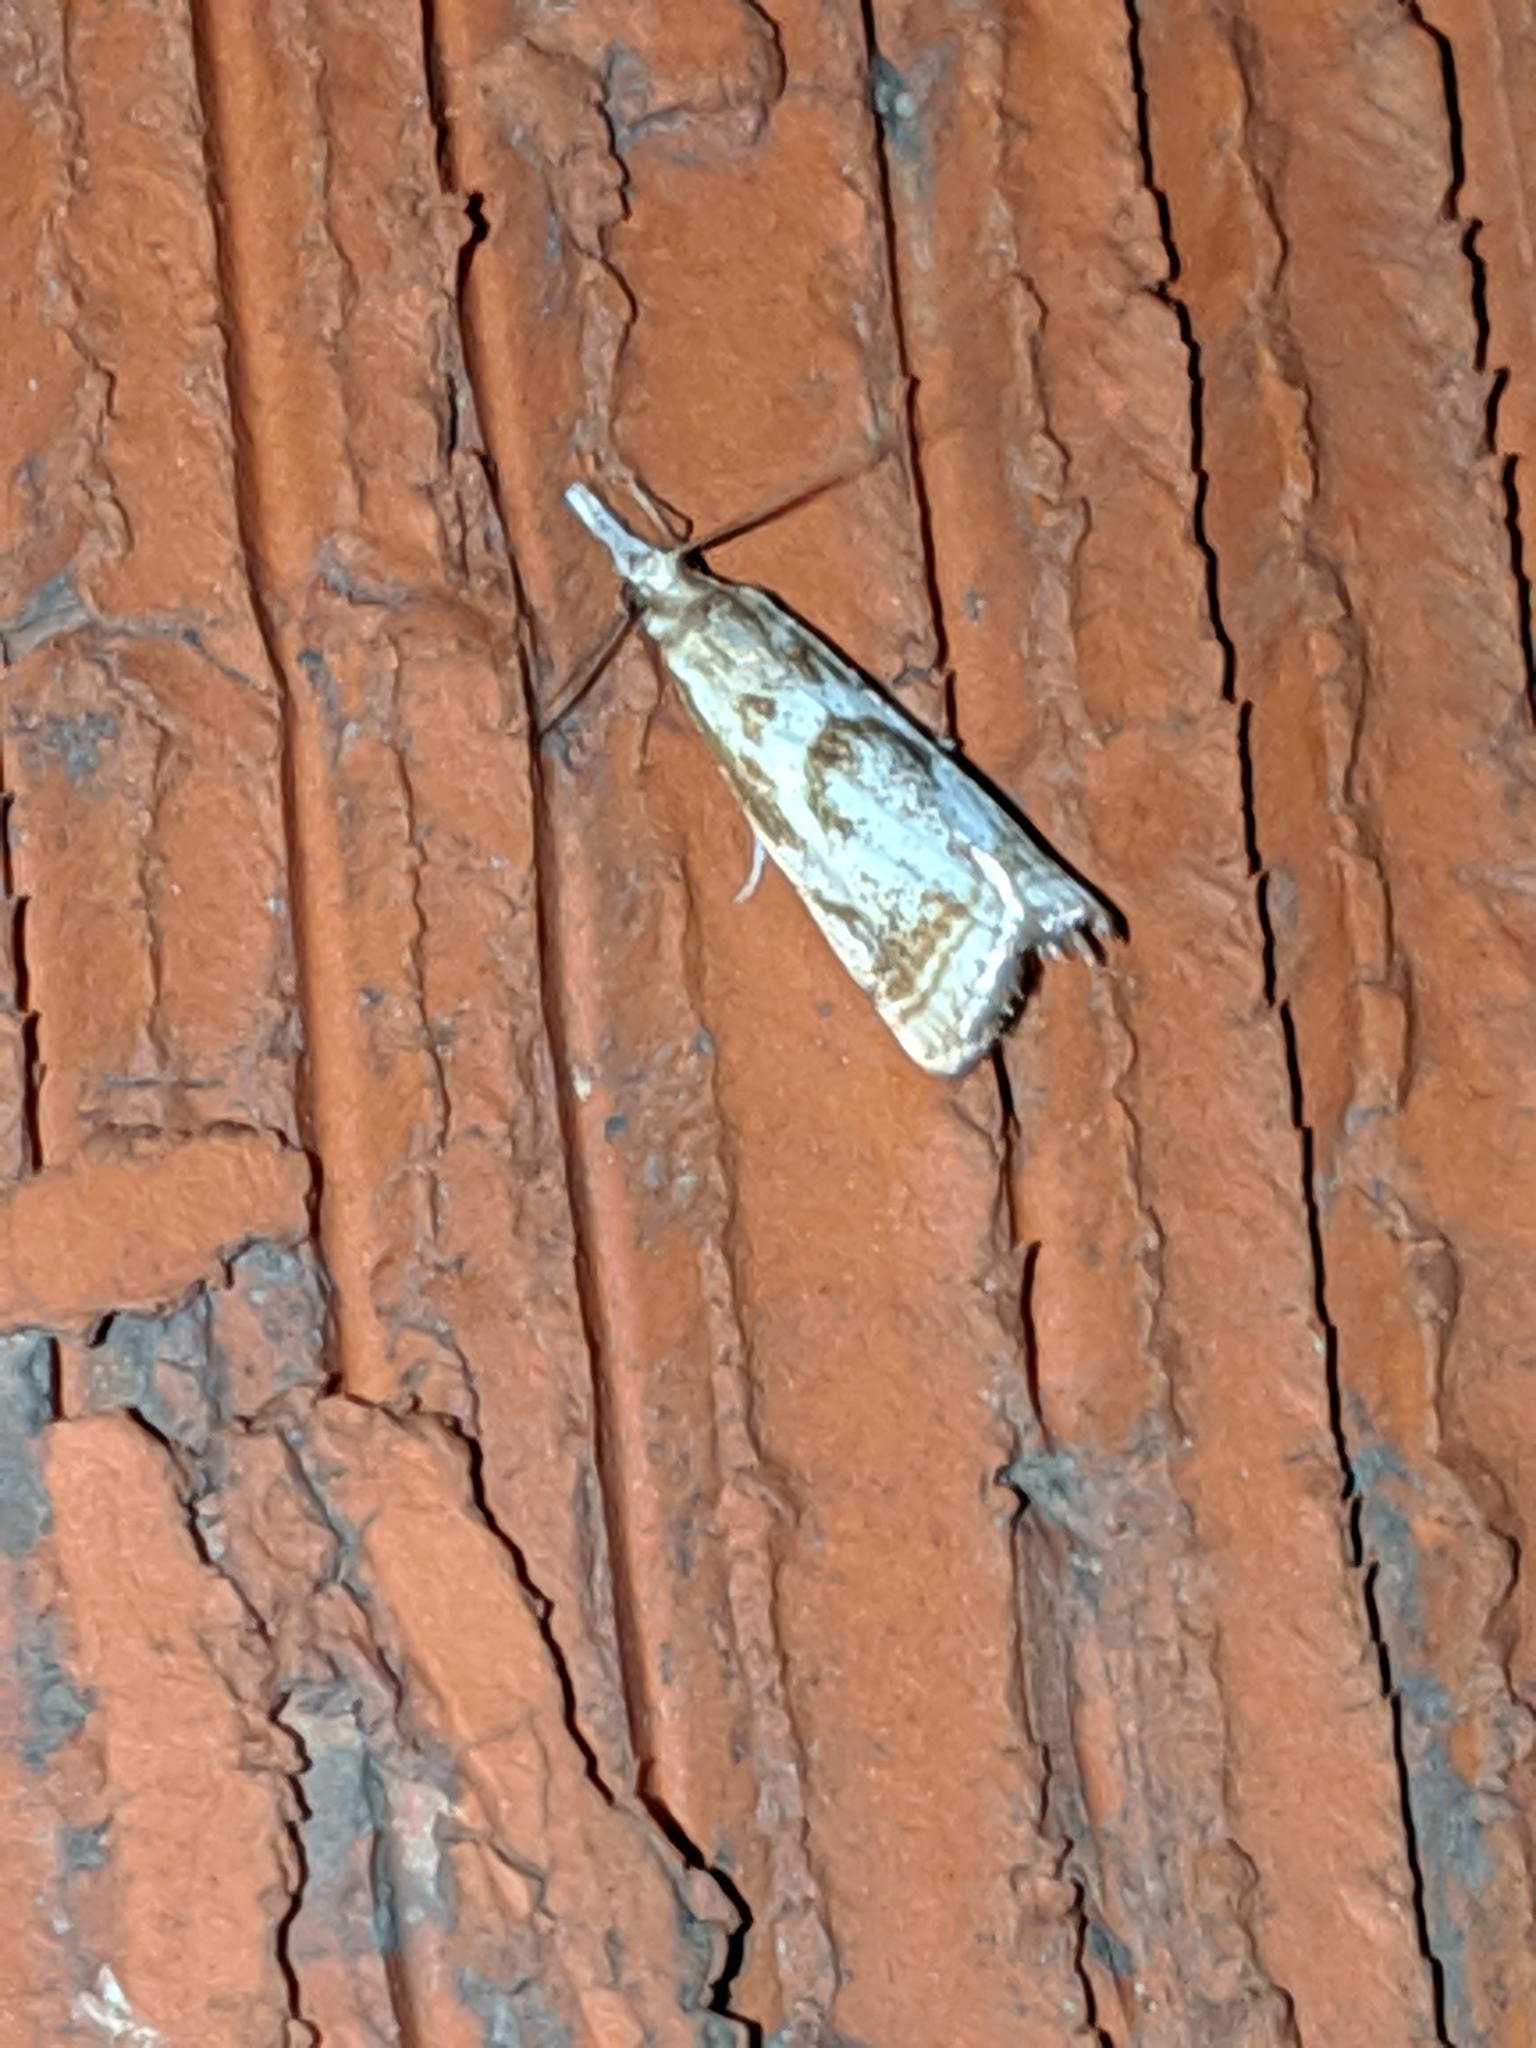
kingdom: Animalia
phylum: Arthropoda
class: Insecta
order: Lepidoptera
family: Crambidae
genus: Microcrambus
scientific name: Microcrambus elegans
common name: Elegant grass-veneer
